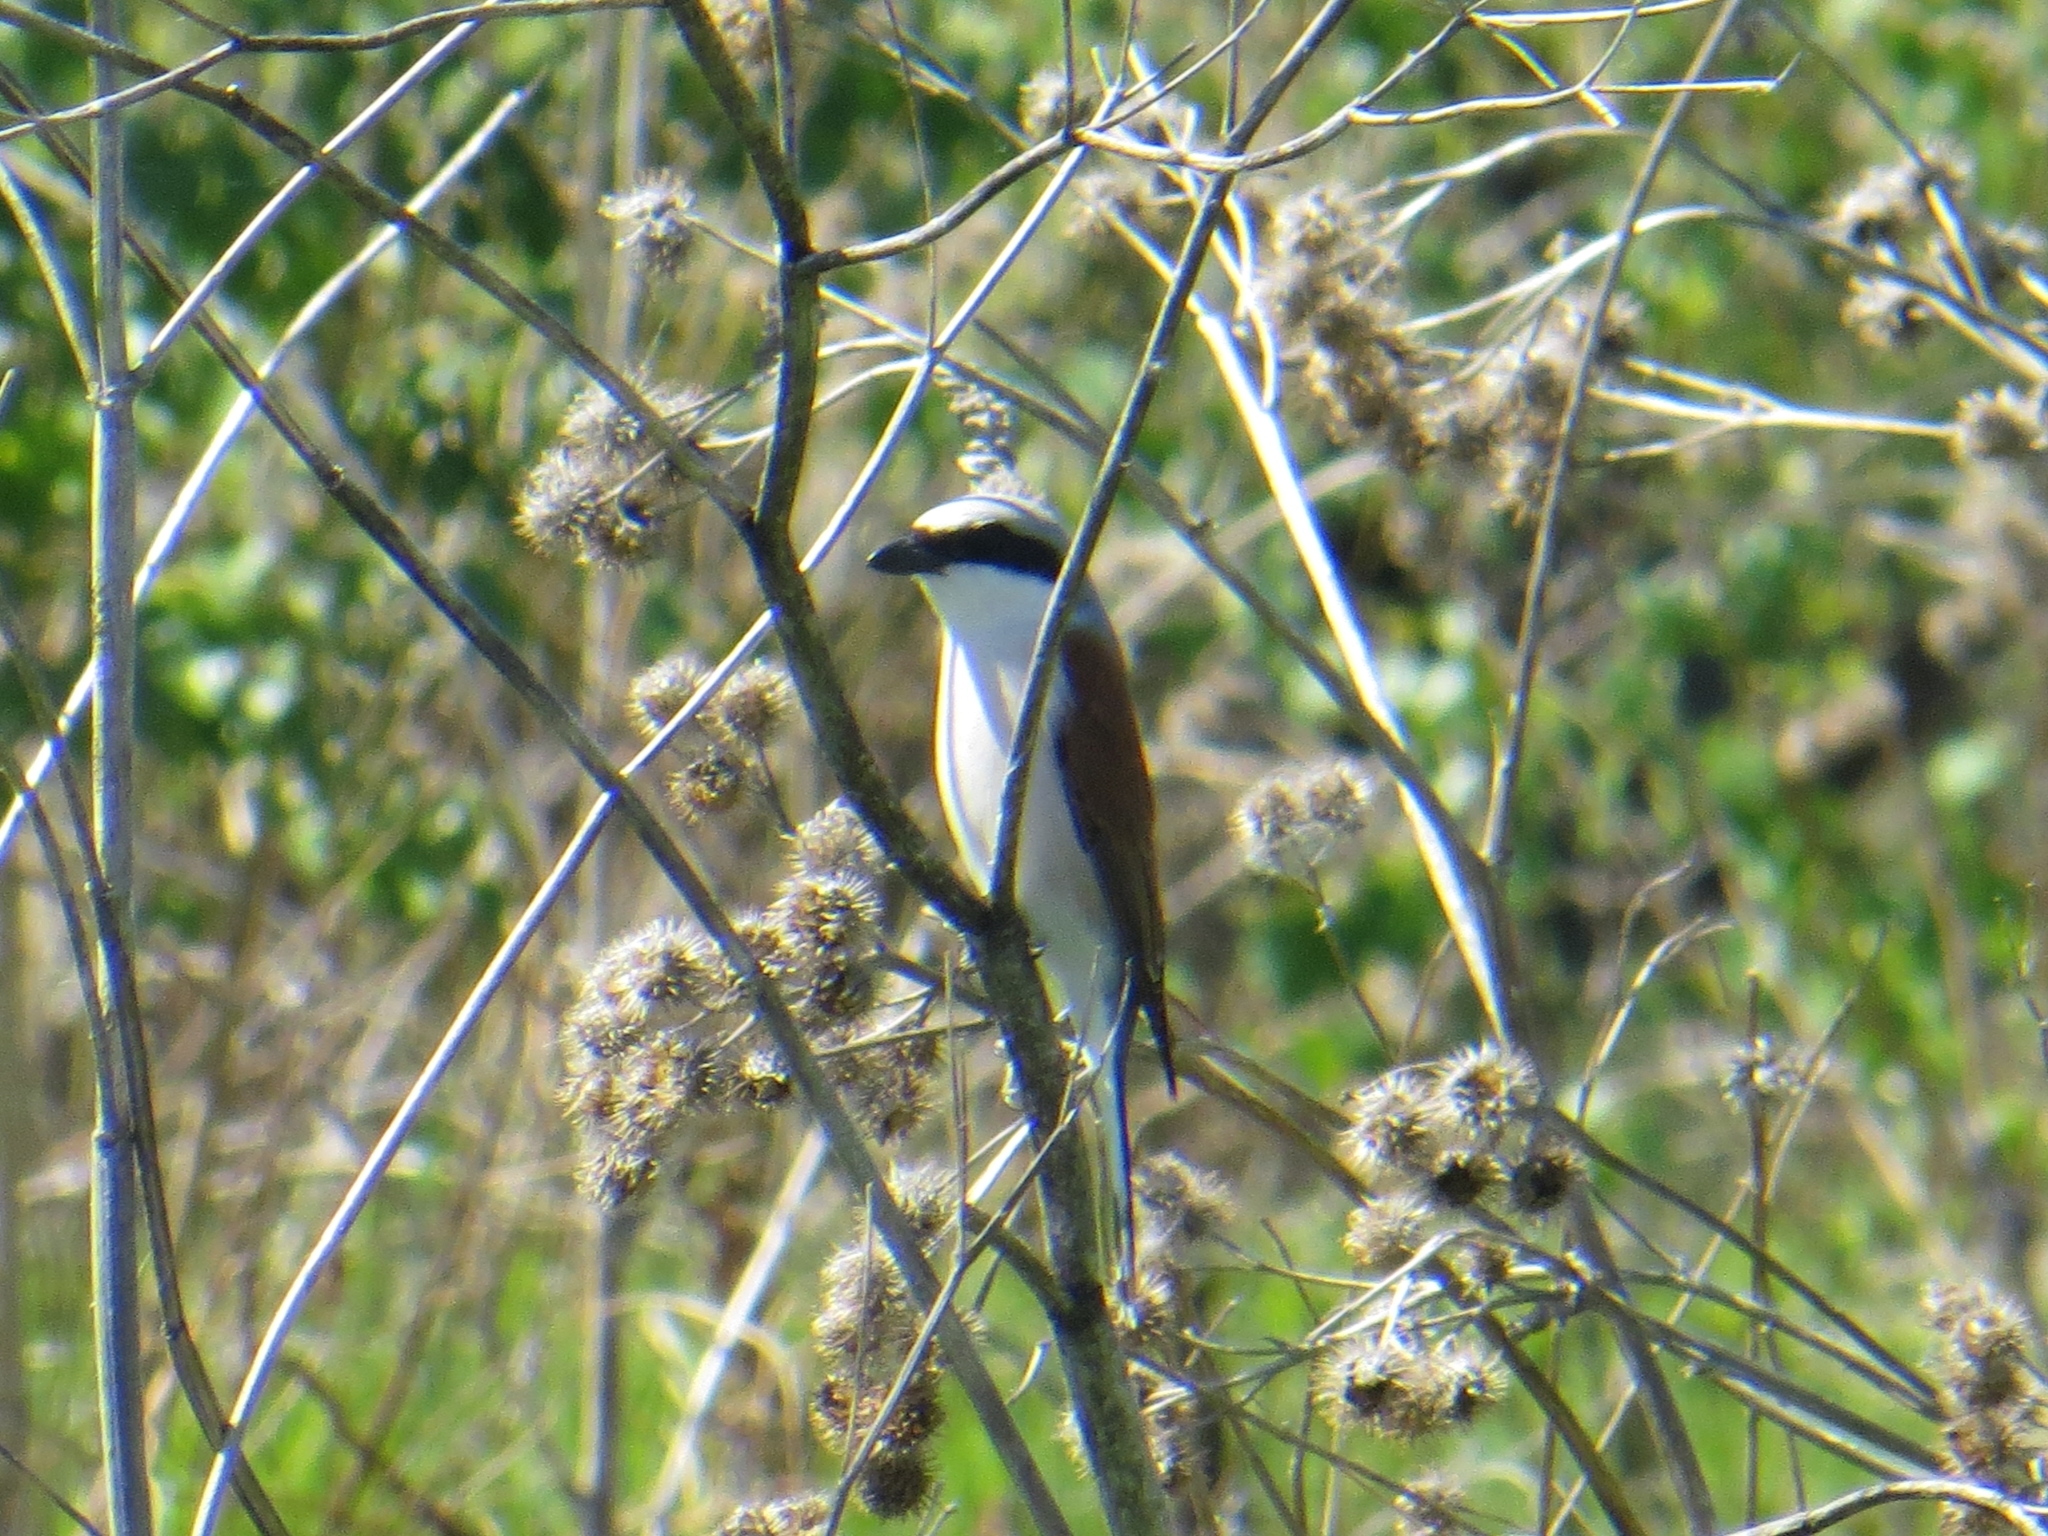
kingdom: Animalia
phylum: Chordata
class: Aves
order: Passeriformes
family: Laniidae
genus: Lanius
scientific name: Lanius collurio
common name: Red-backed shrike
